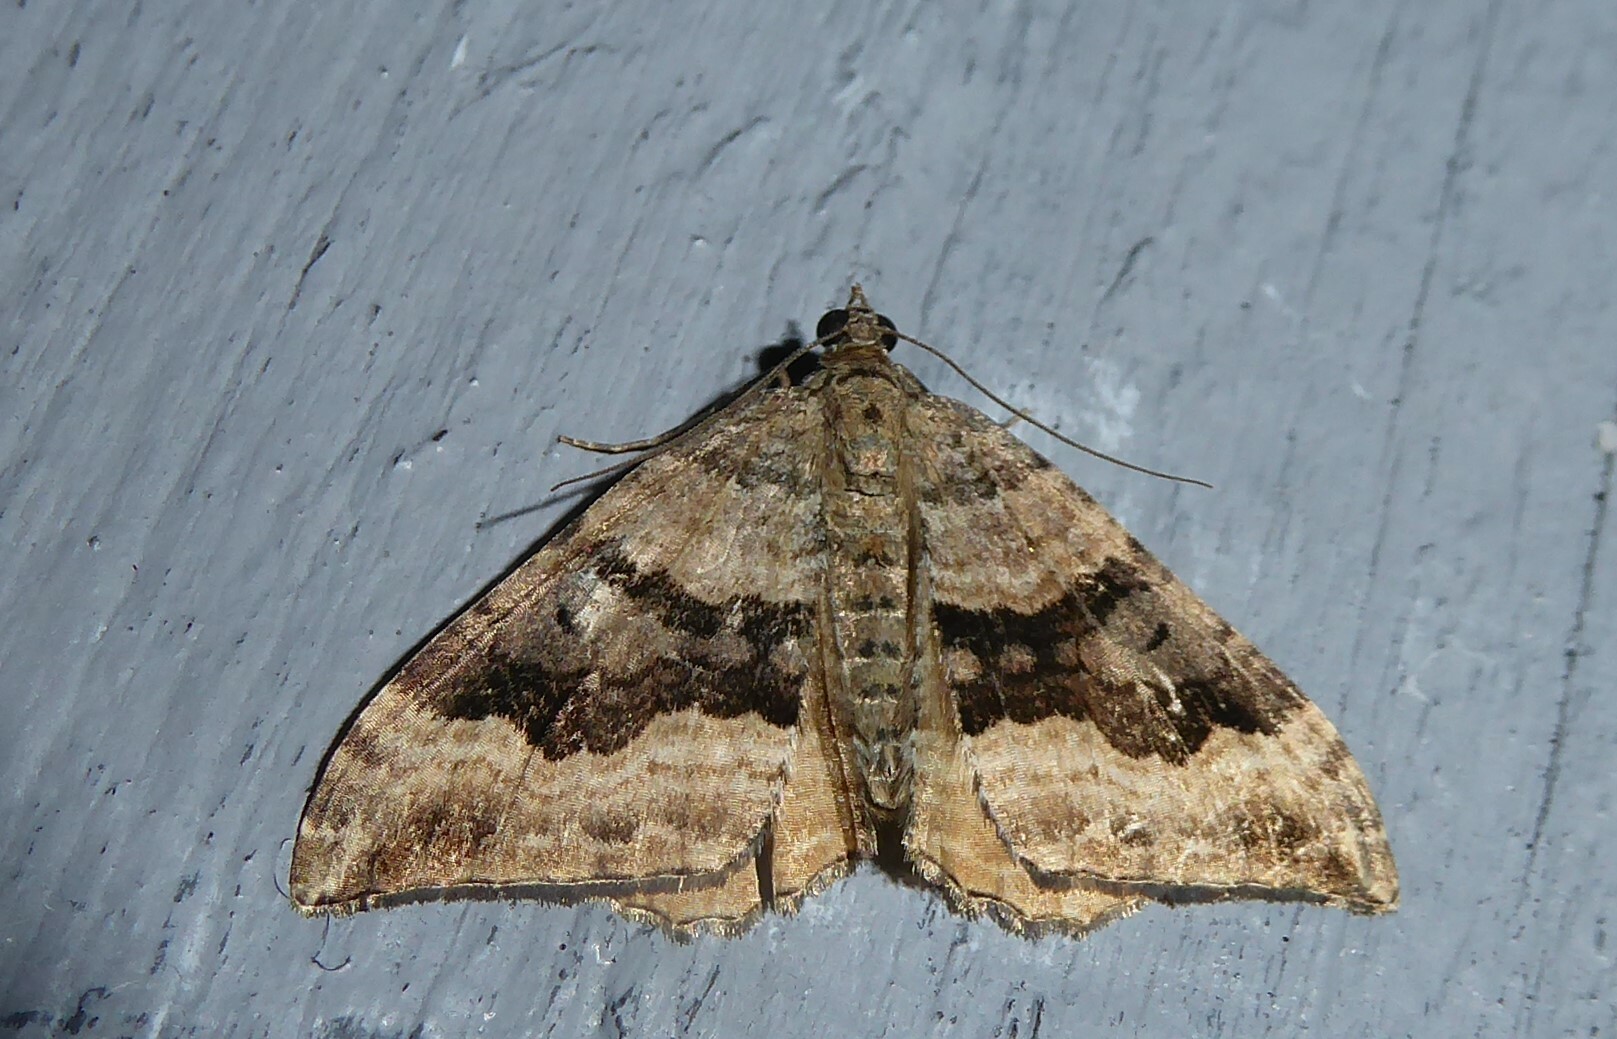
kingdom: Animalia
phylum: Arthropoda
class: Insecta
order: Lepidoptera
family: Geometridae
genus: Hydriomena
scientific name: Hydriomena deltoidata
